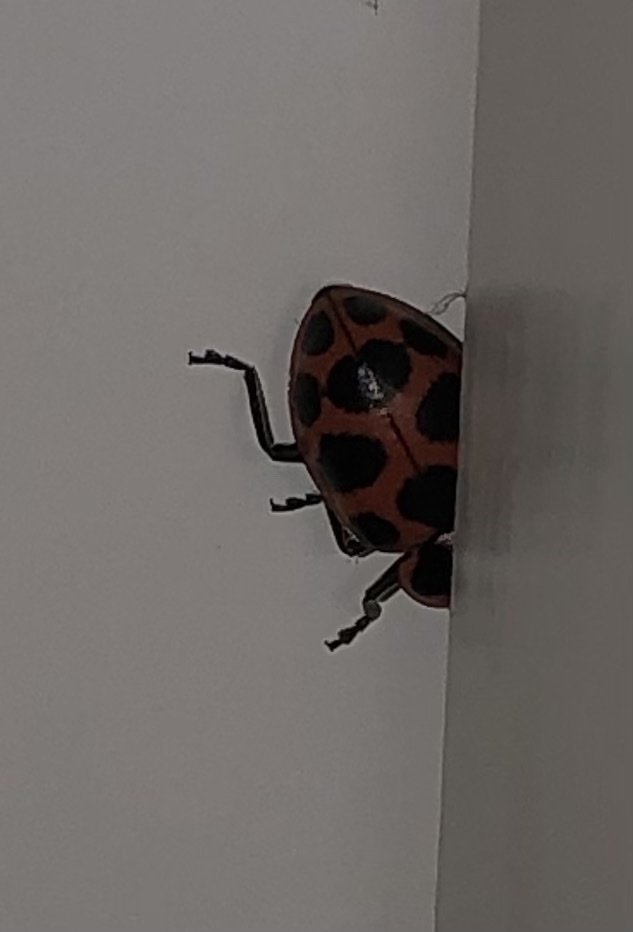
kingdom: Animalia
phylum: Arthropoda
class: Insecta
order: Coleoptera
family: Coccinellidae
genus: Coleomegilla
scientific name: Coleomegilla maculata
